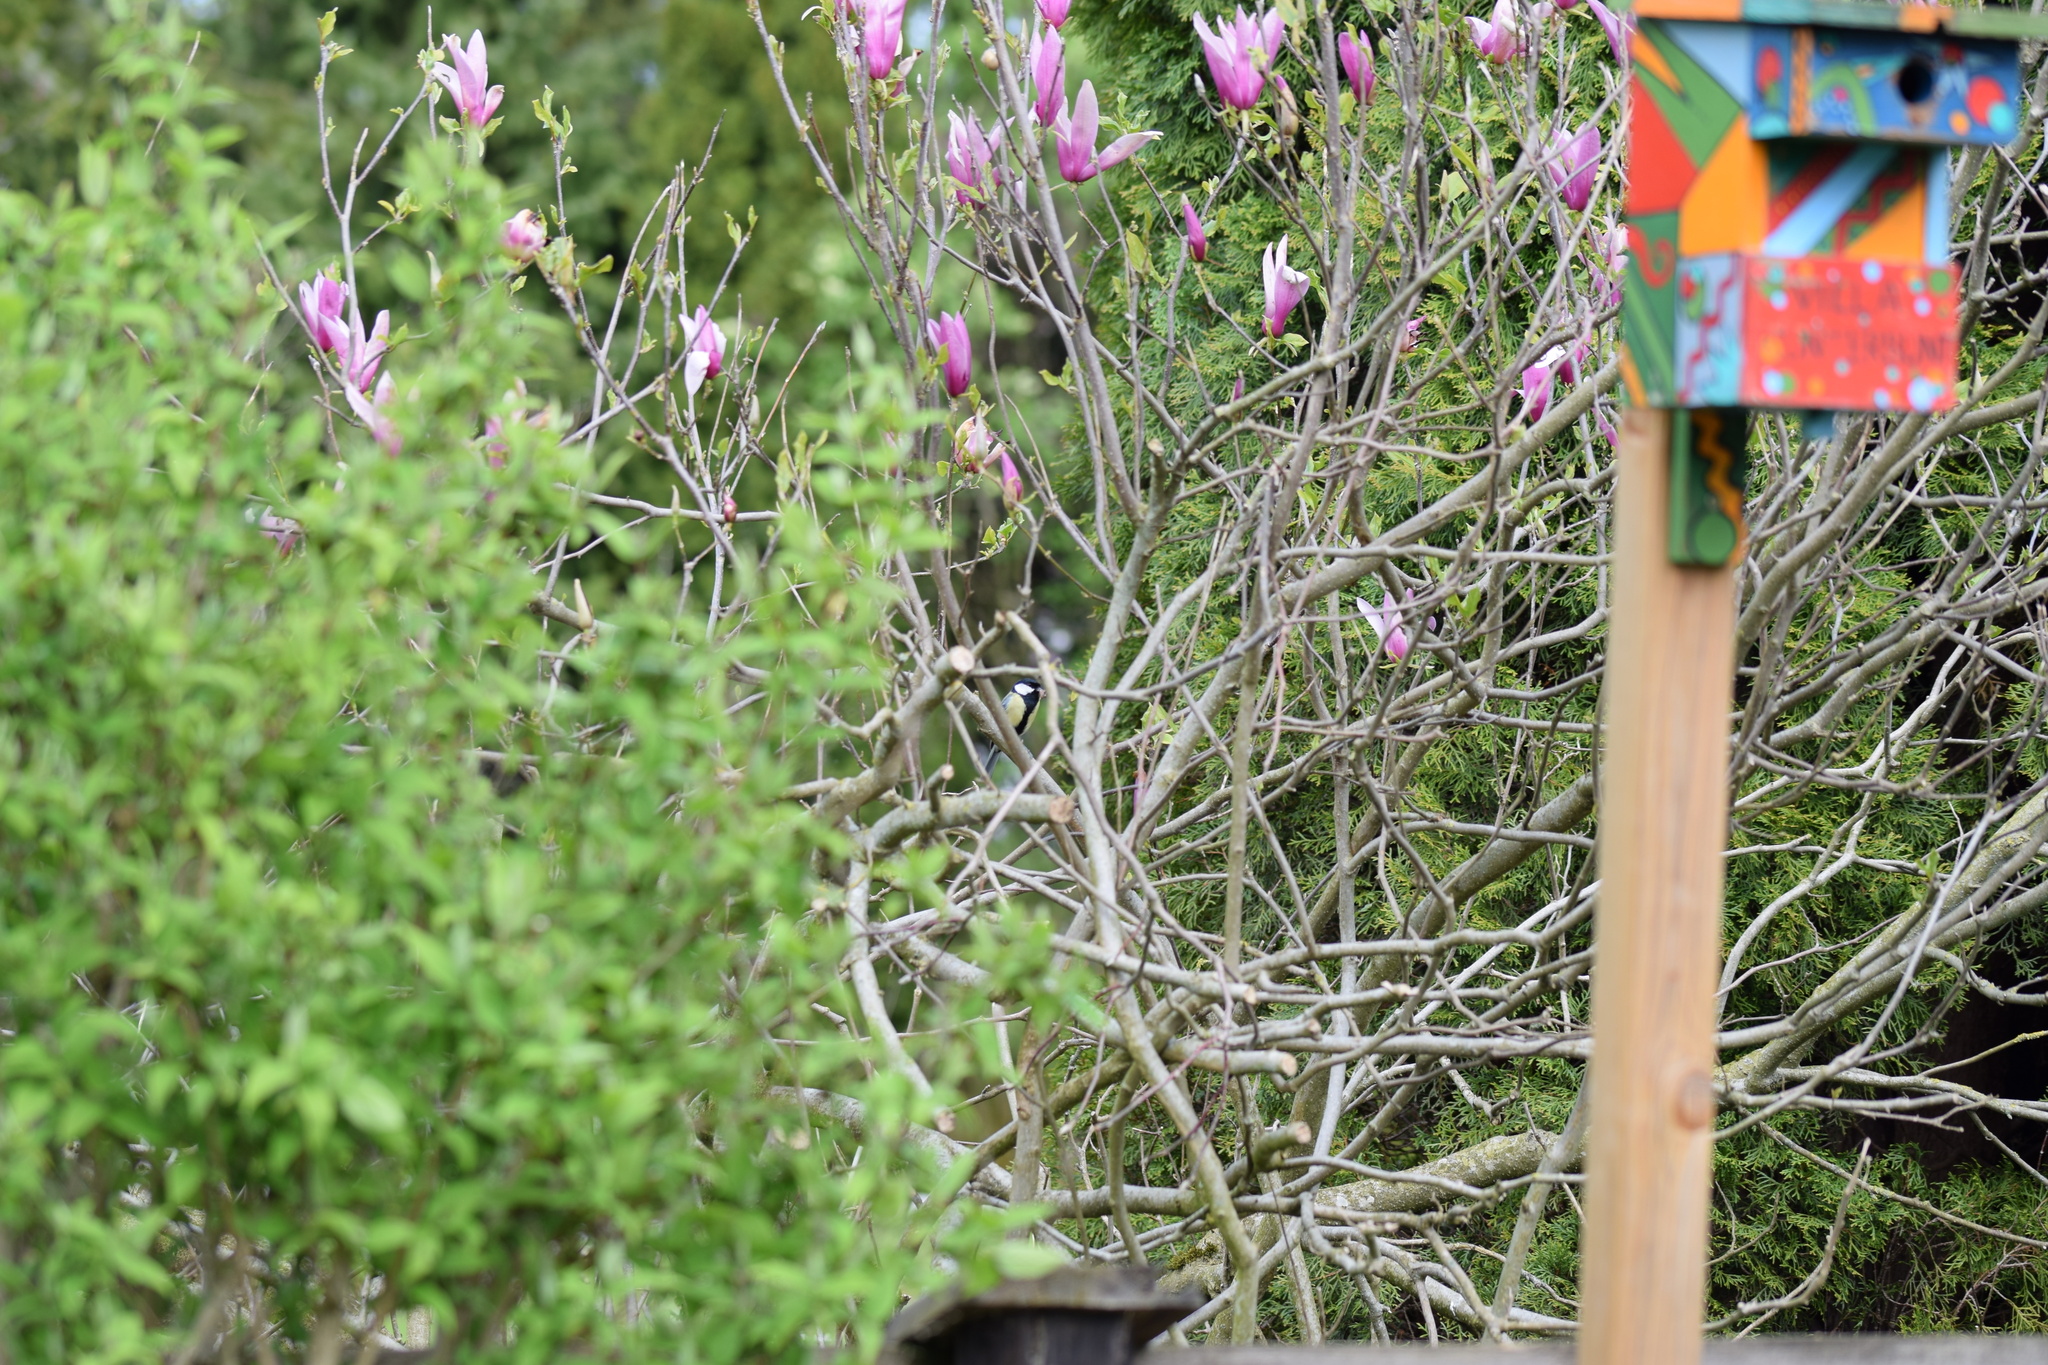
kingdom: Animalia
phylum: Chordata
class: Aves
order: Passeriformes
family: Paridae
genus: Parus
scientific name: Parus major
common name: Great tit
